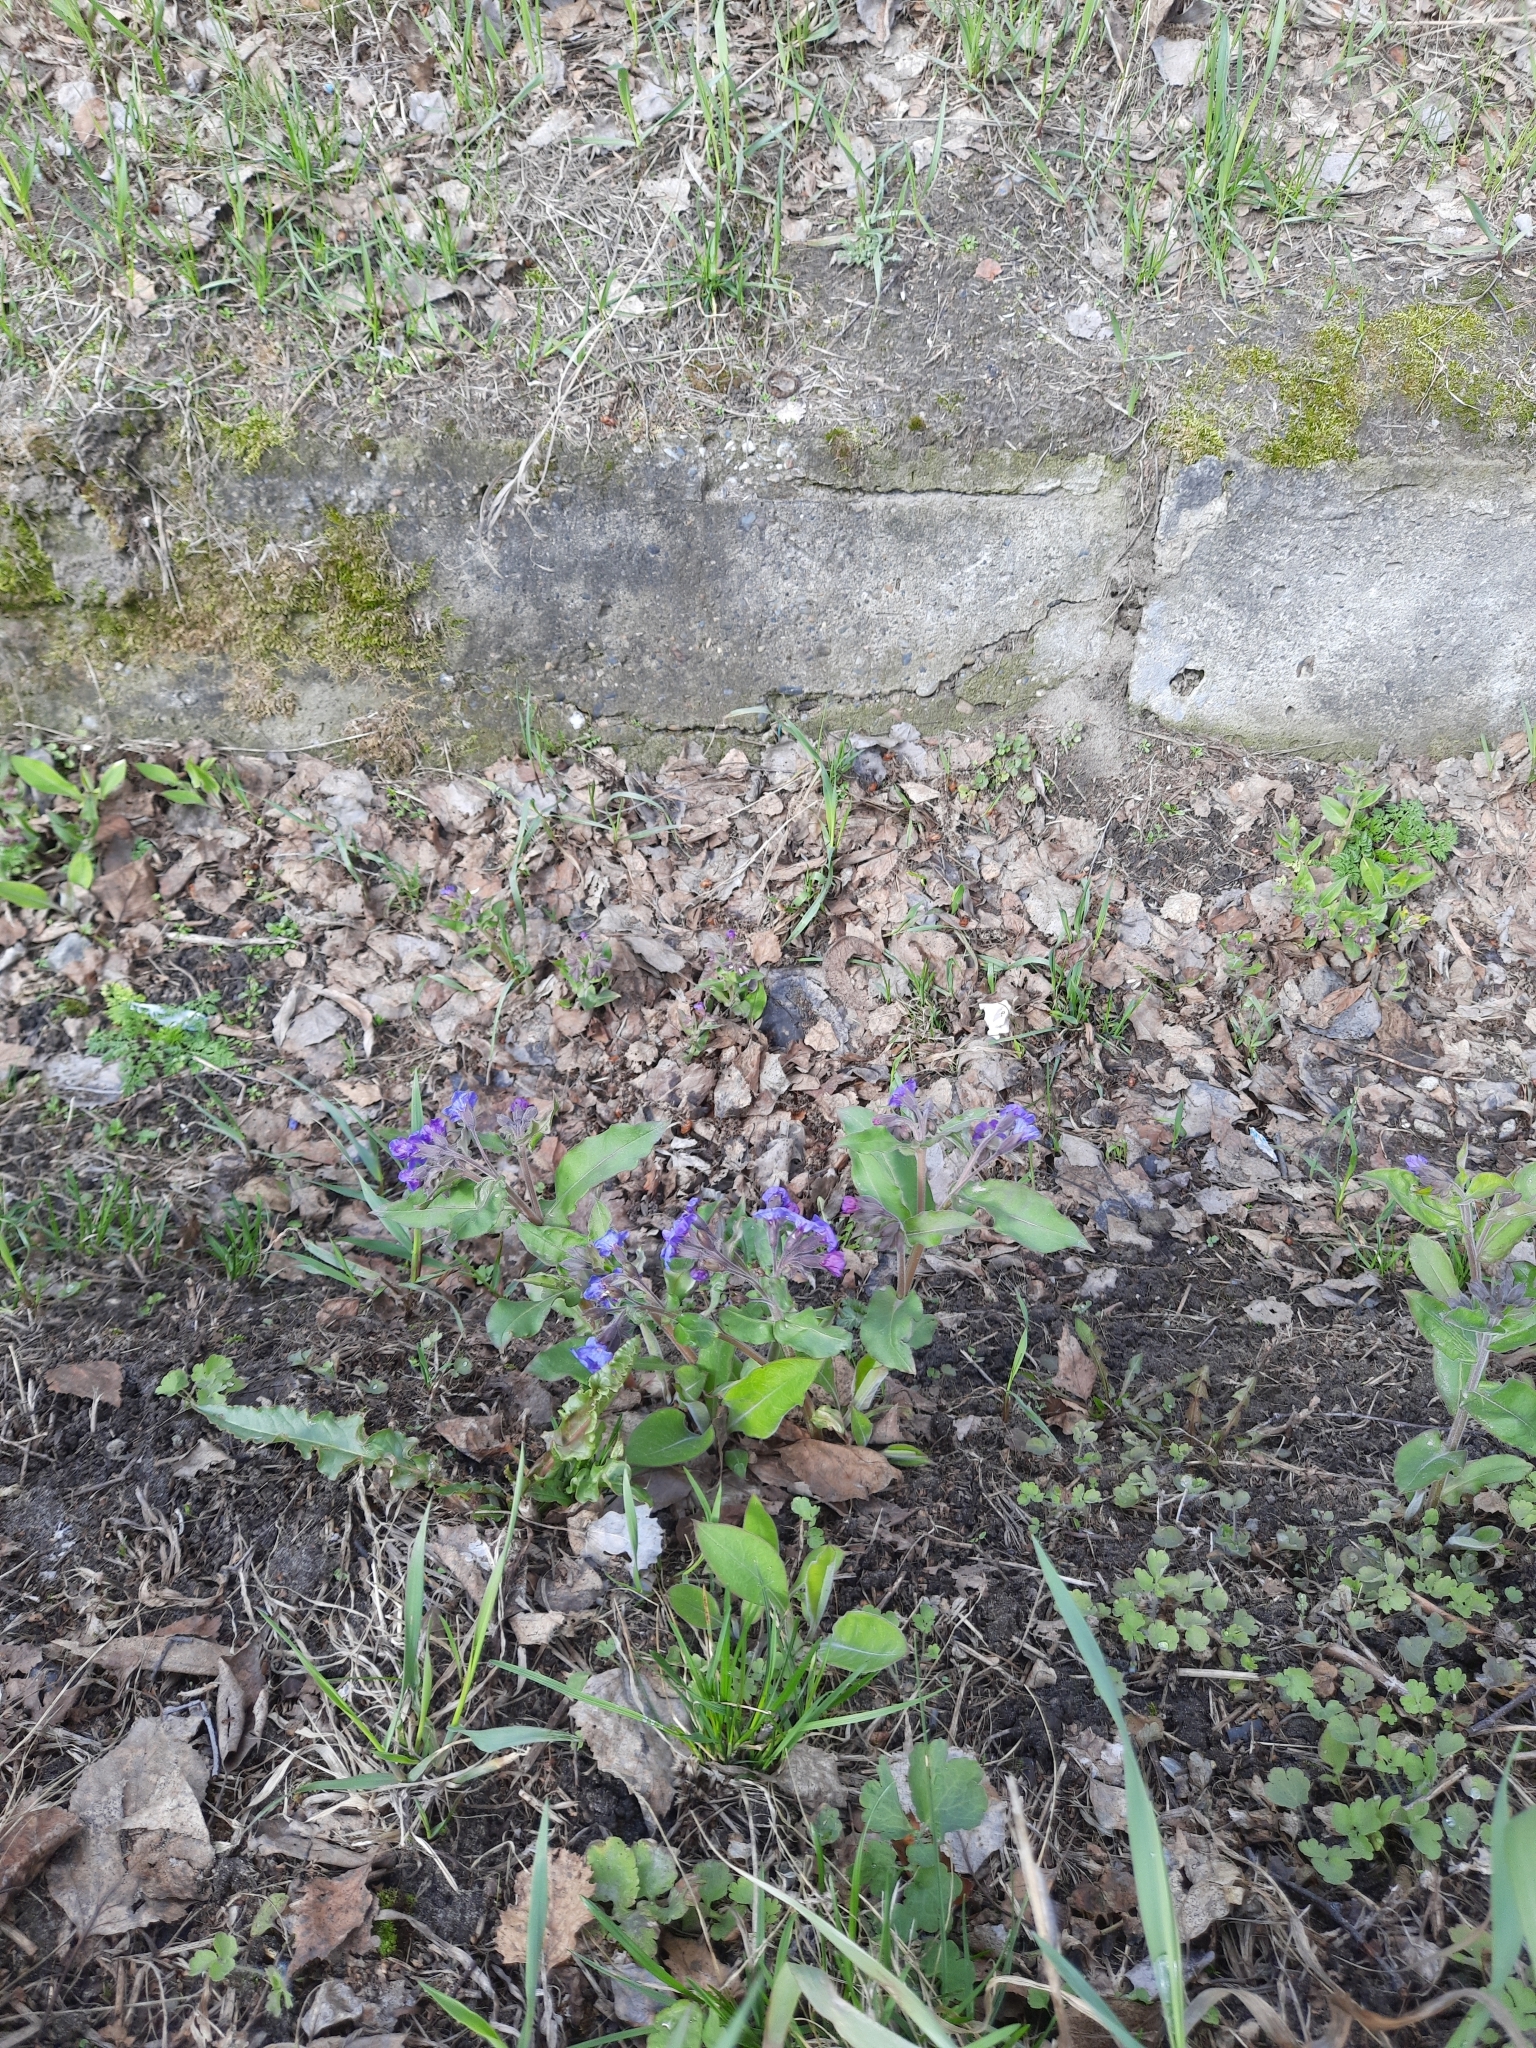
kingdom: Plantae
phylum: Tracheophyta
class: Magnoliopsida
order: Boraginales
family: Boraginaceae
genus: Pulmonaria
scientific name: Pulmonaria mollis
